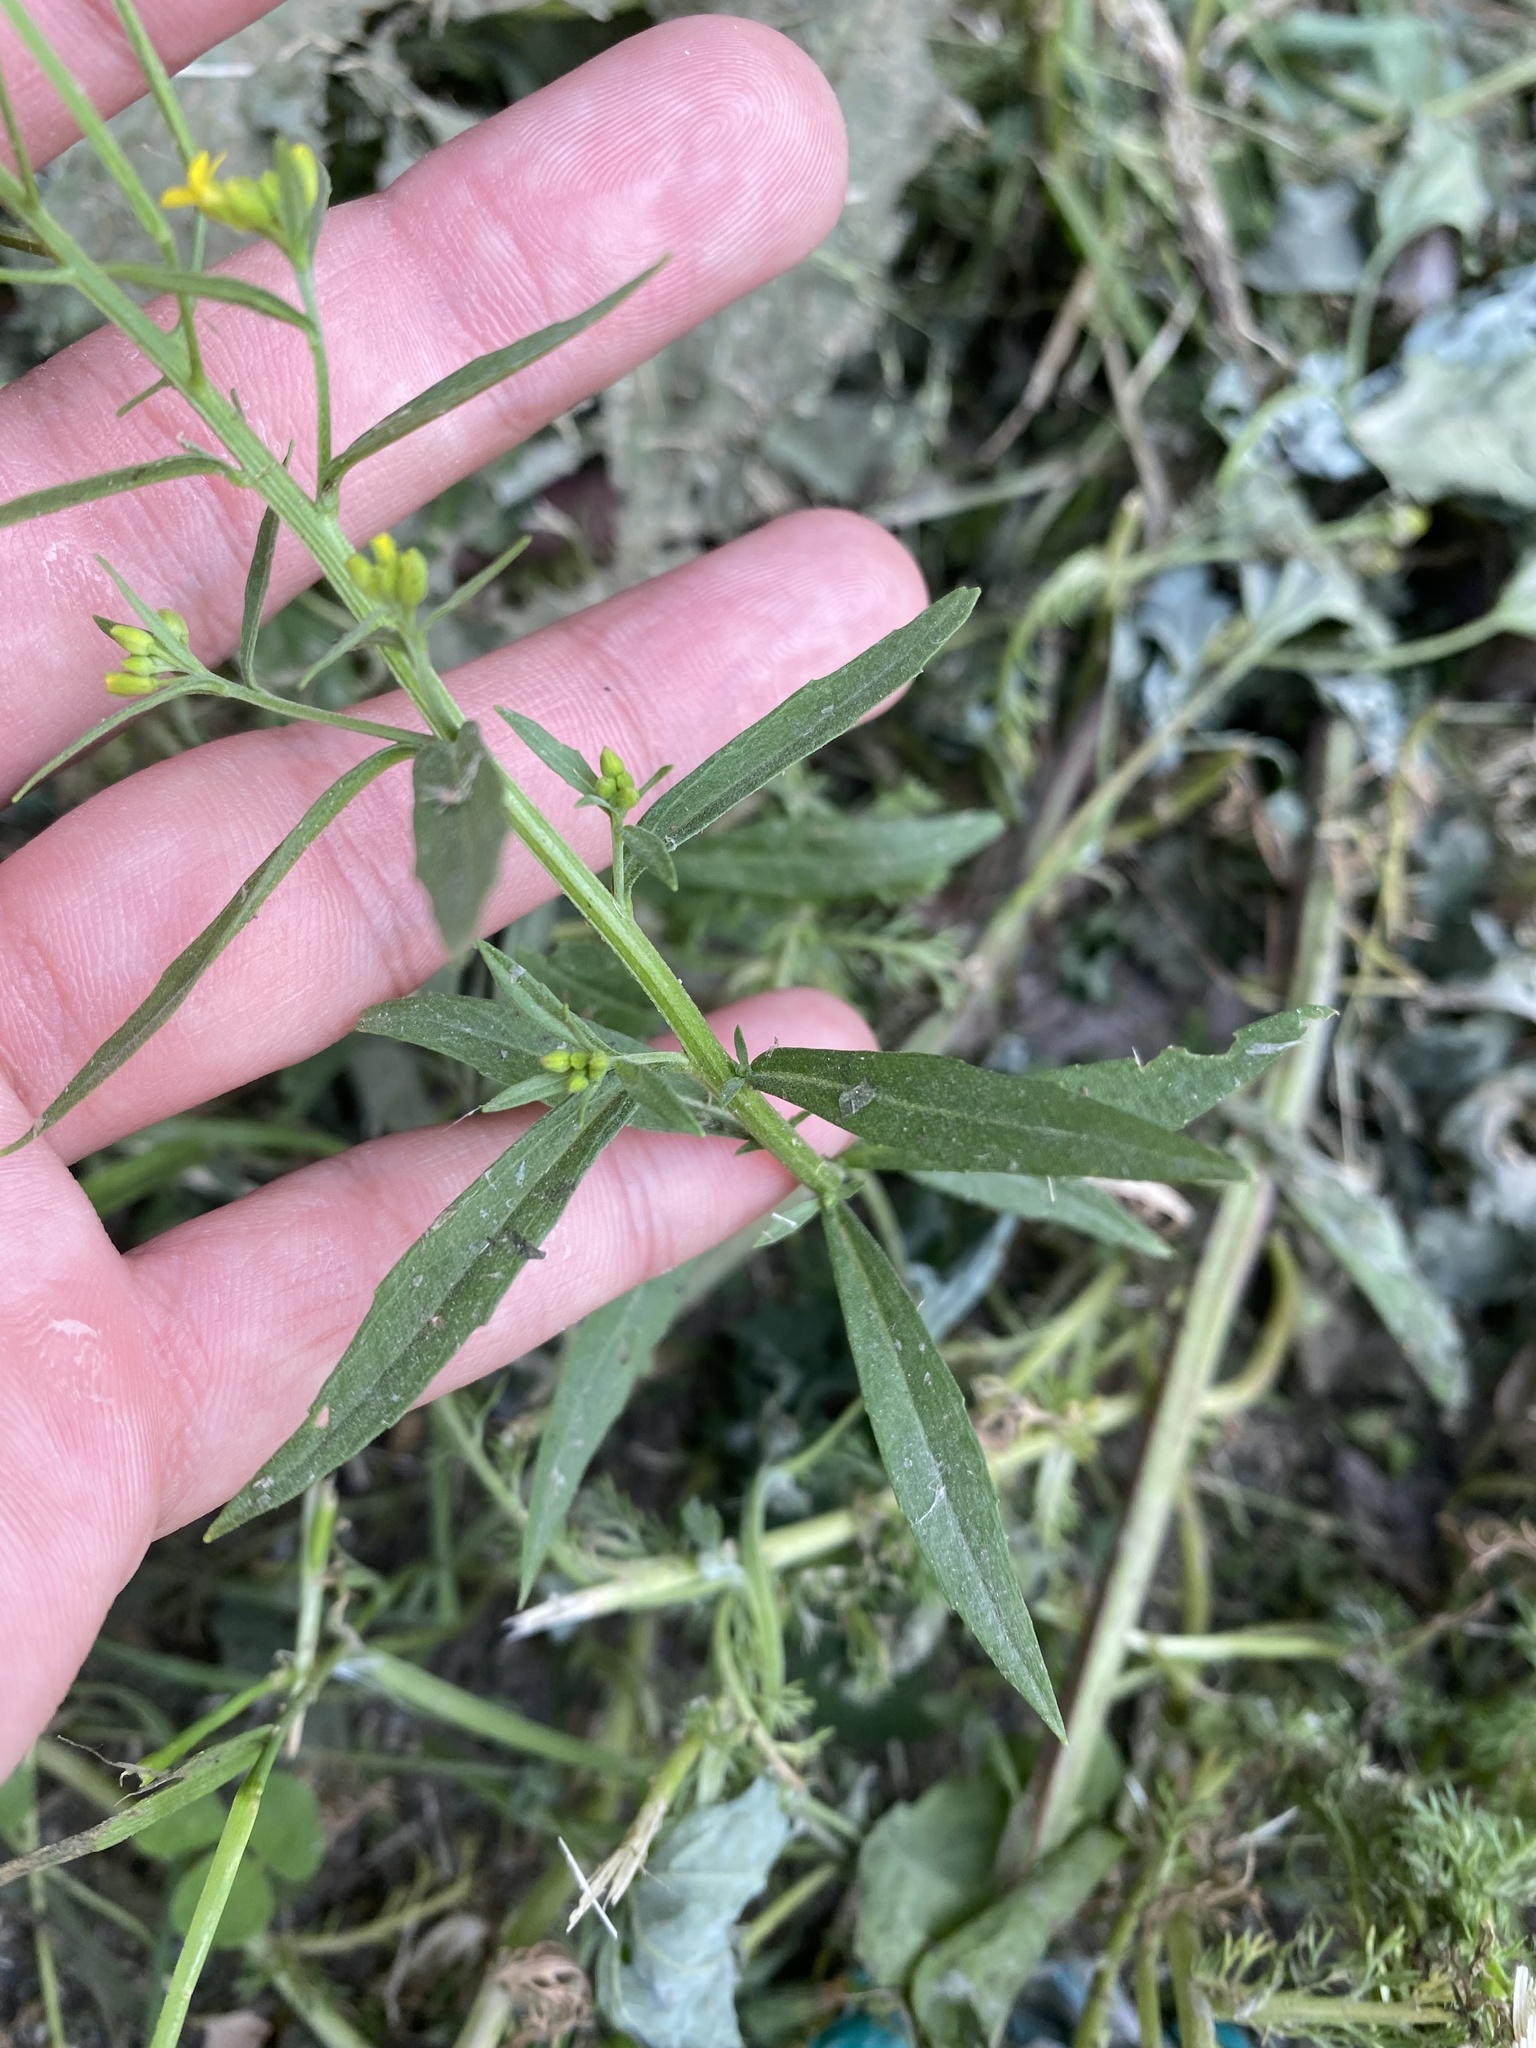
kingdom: Plantae
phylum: Tracheophyta
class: Magnoliopsida
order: Brassicales
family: Brassicaceae
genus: Erysimum
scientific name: Erysimum cheiranthoides
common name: Treacle mustard
